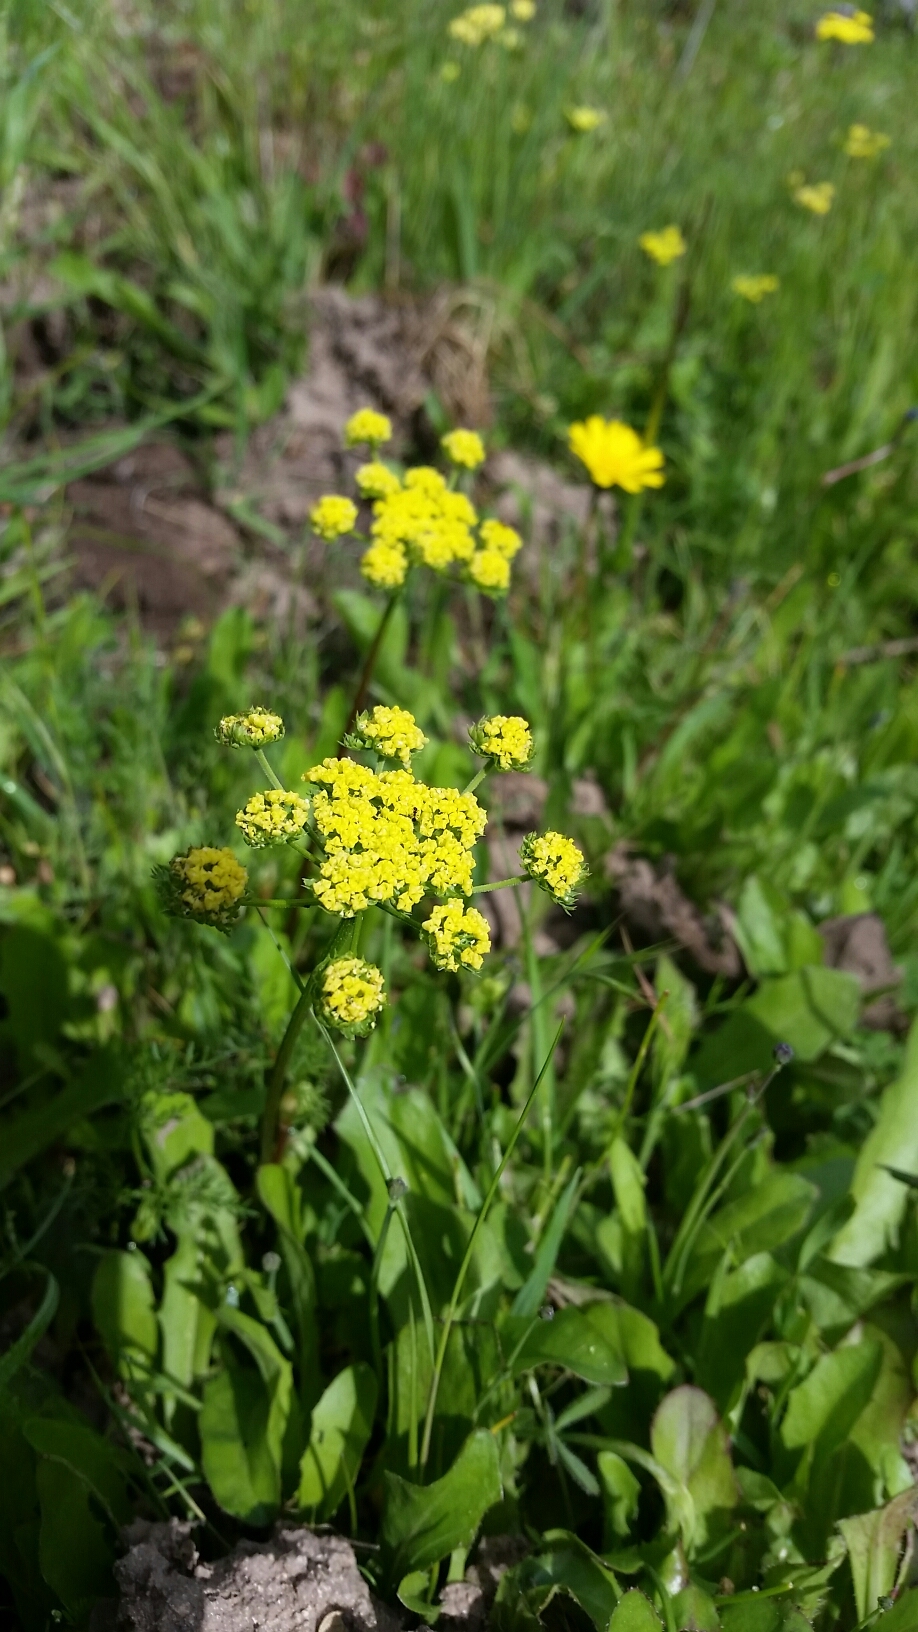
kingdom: Plantae
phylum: Tracheophyta
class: Magnoliopsida
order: Apiales
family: Apiaceae
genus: Lomatium
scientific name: Lomatium utriculatum
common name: Fine-leaf desert-parsley
